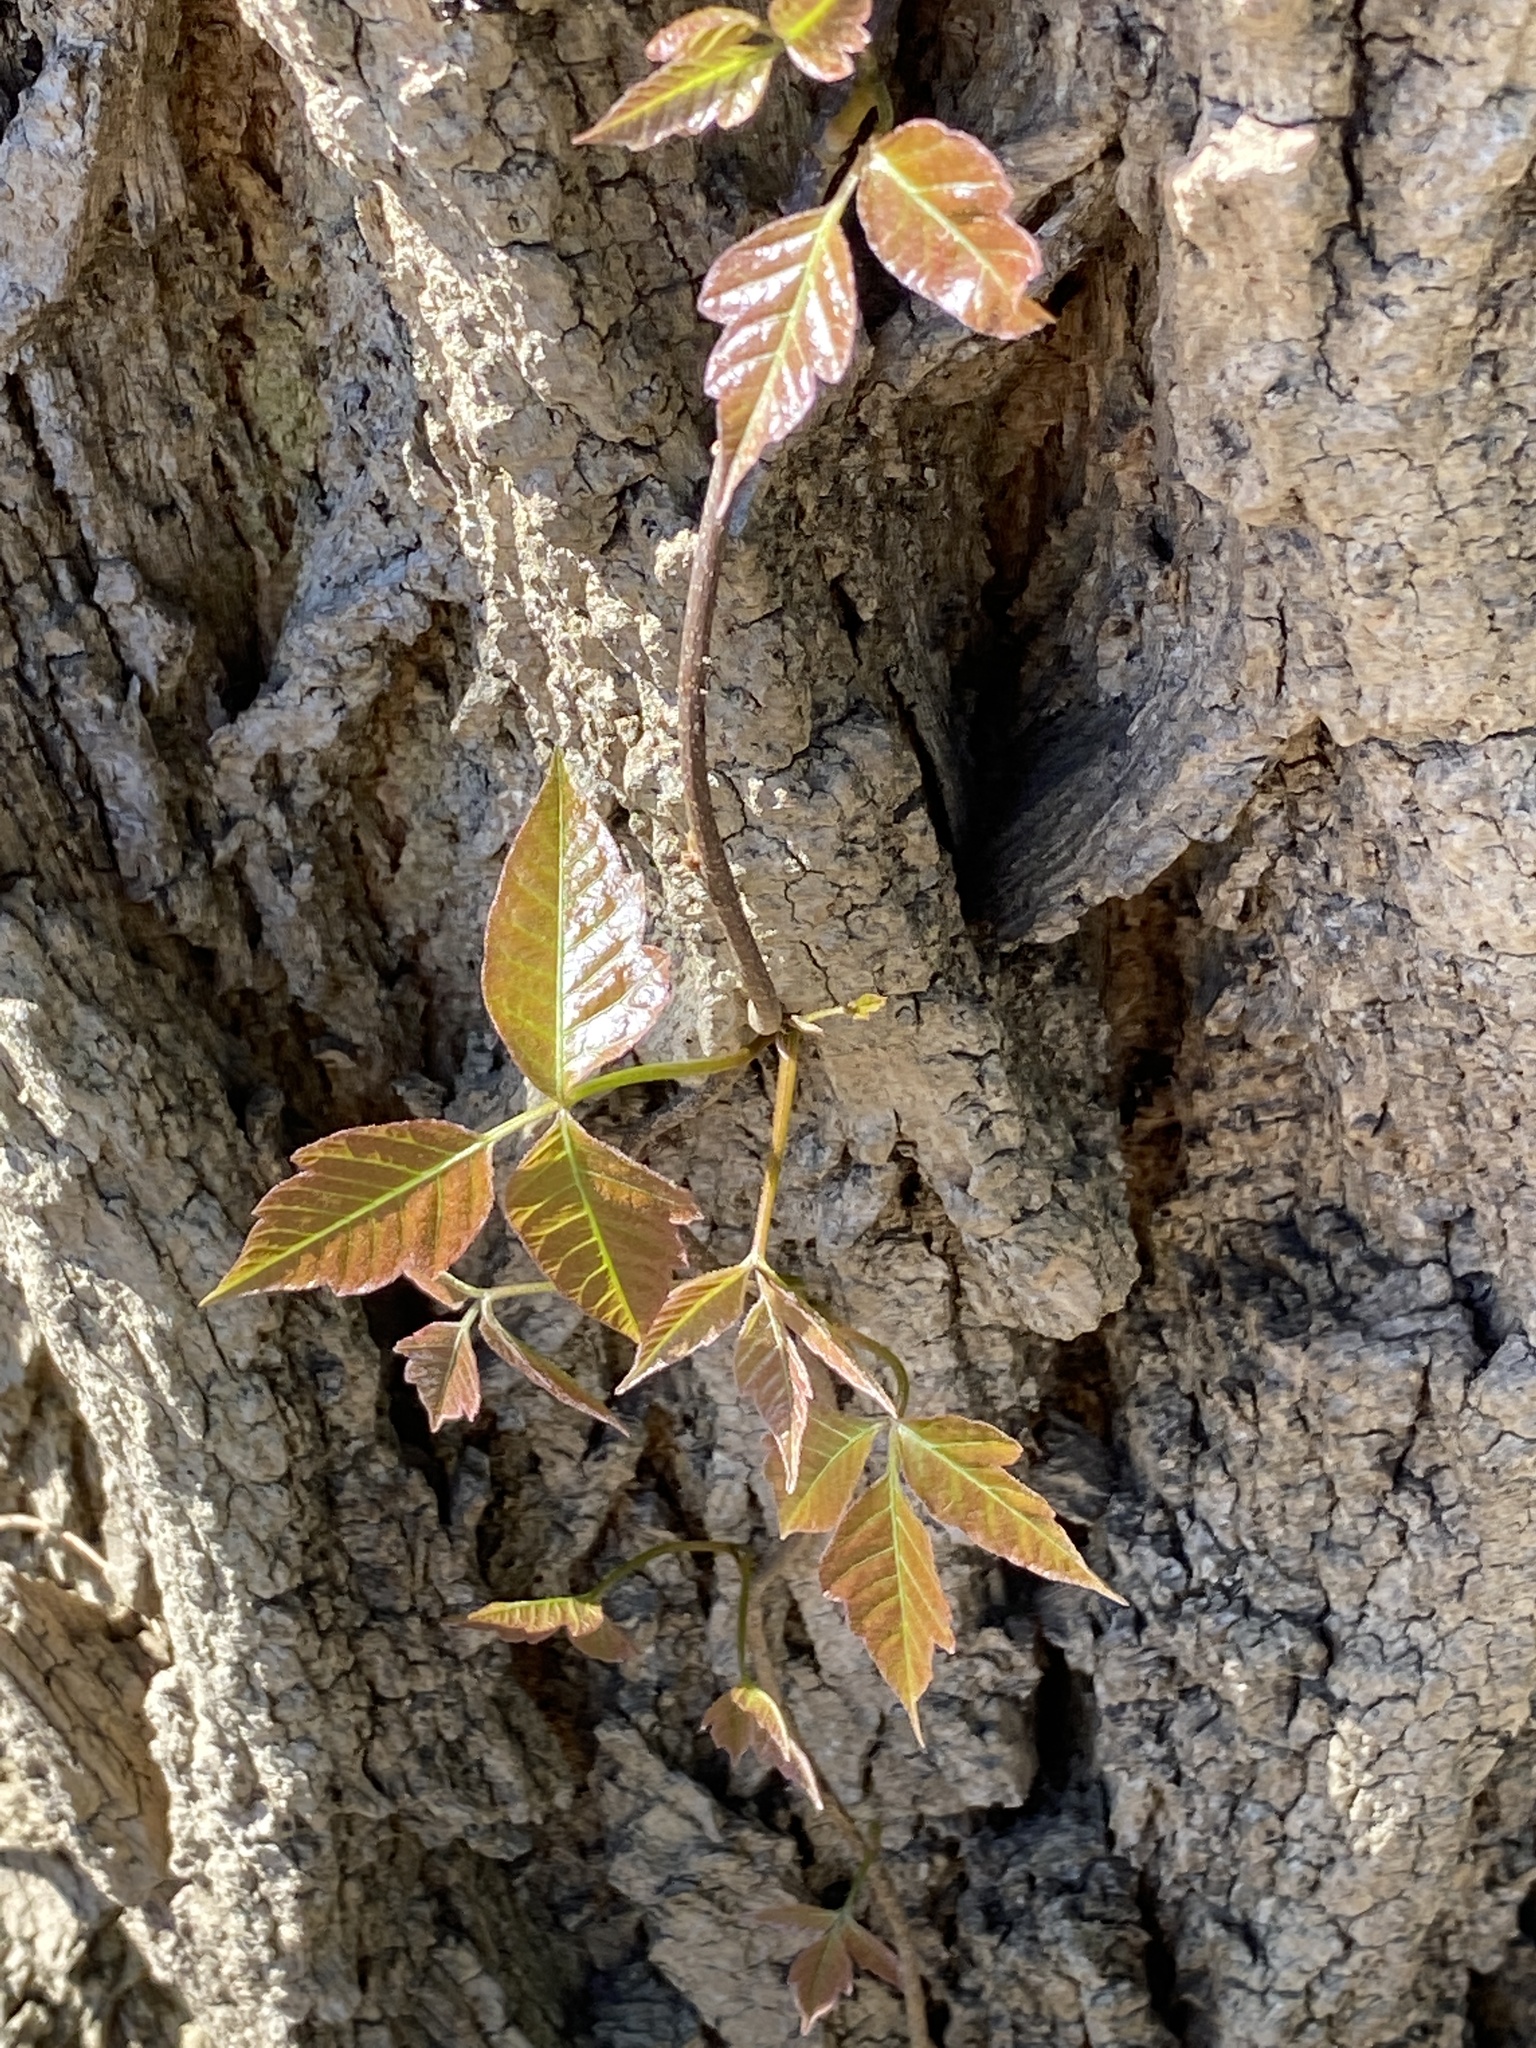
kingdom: Plantae
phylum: Tracheophyta
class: Magnoliopsida
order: Sapindales
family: Anacardiaceae
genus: Toxicodendron
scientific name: Toxicodendron radicans
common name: Poison ivy
